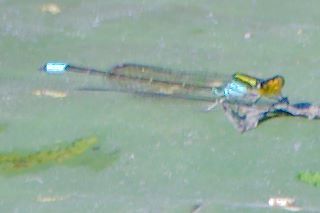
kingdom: Animalia
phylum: Arthropoda
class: Insecta
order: Odonata
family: Coenagrionidae
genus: Neoerythromma
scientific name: Neoerythromma cultellatum
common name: Caribbean yellowface
